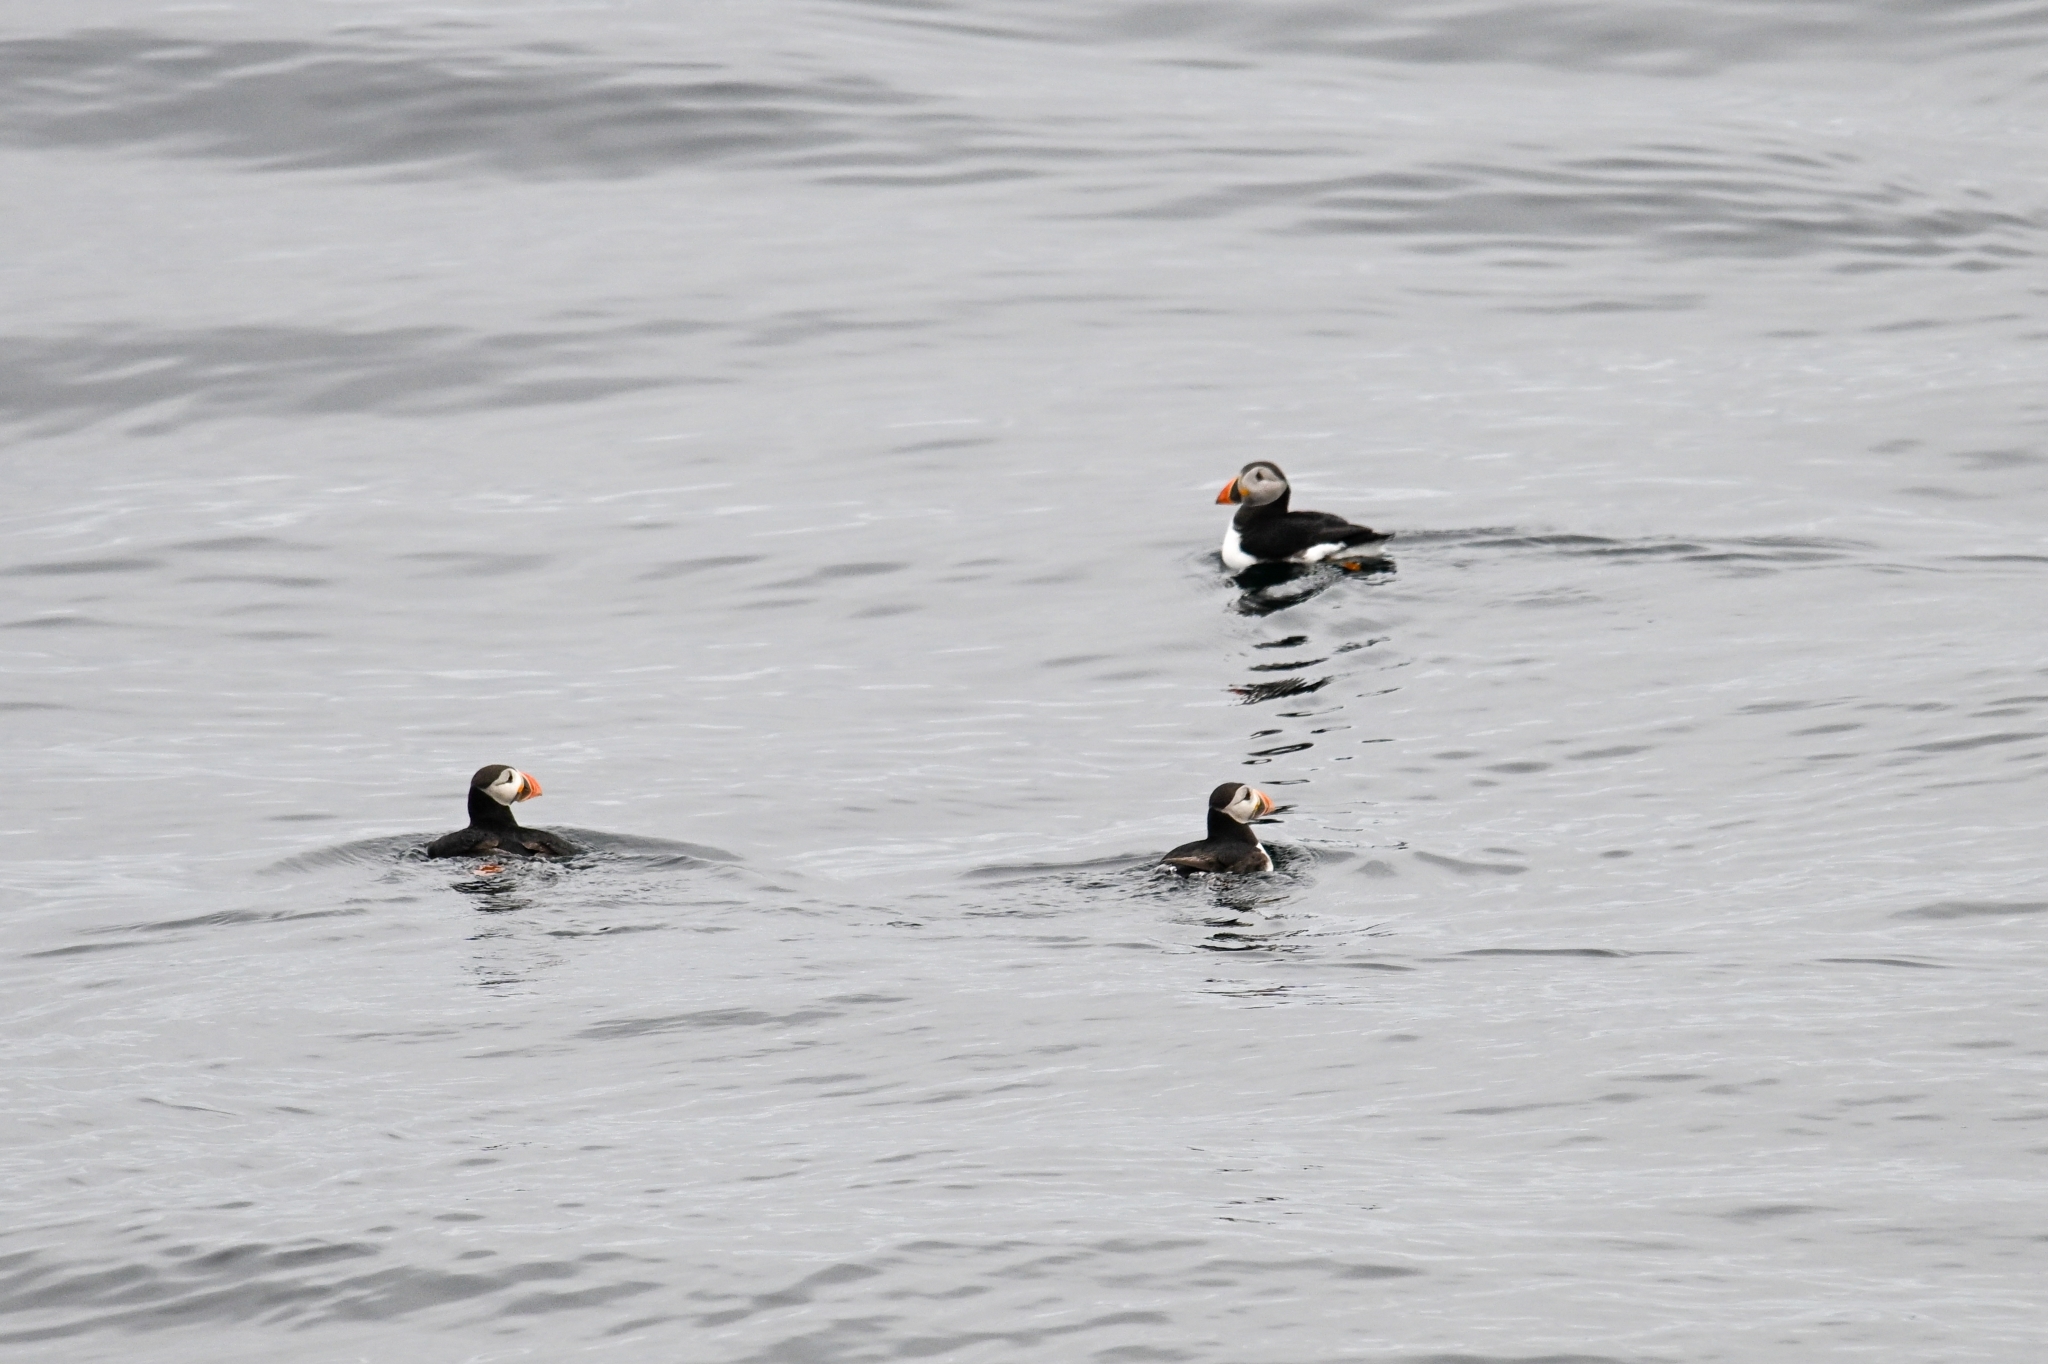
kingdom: Animalia
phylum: Chordata
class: Aves
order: Charadriiformes
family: Alcidae
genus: Fratercula
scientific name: Fratercula arctica
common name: Atlantic puffin
